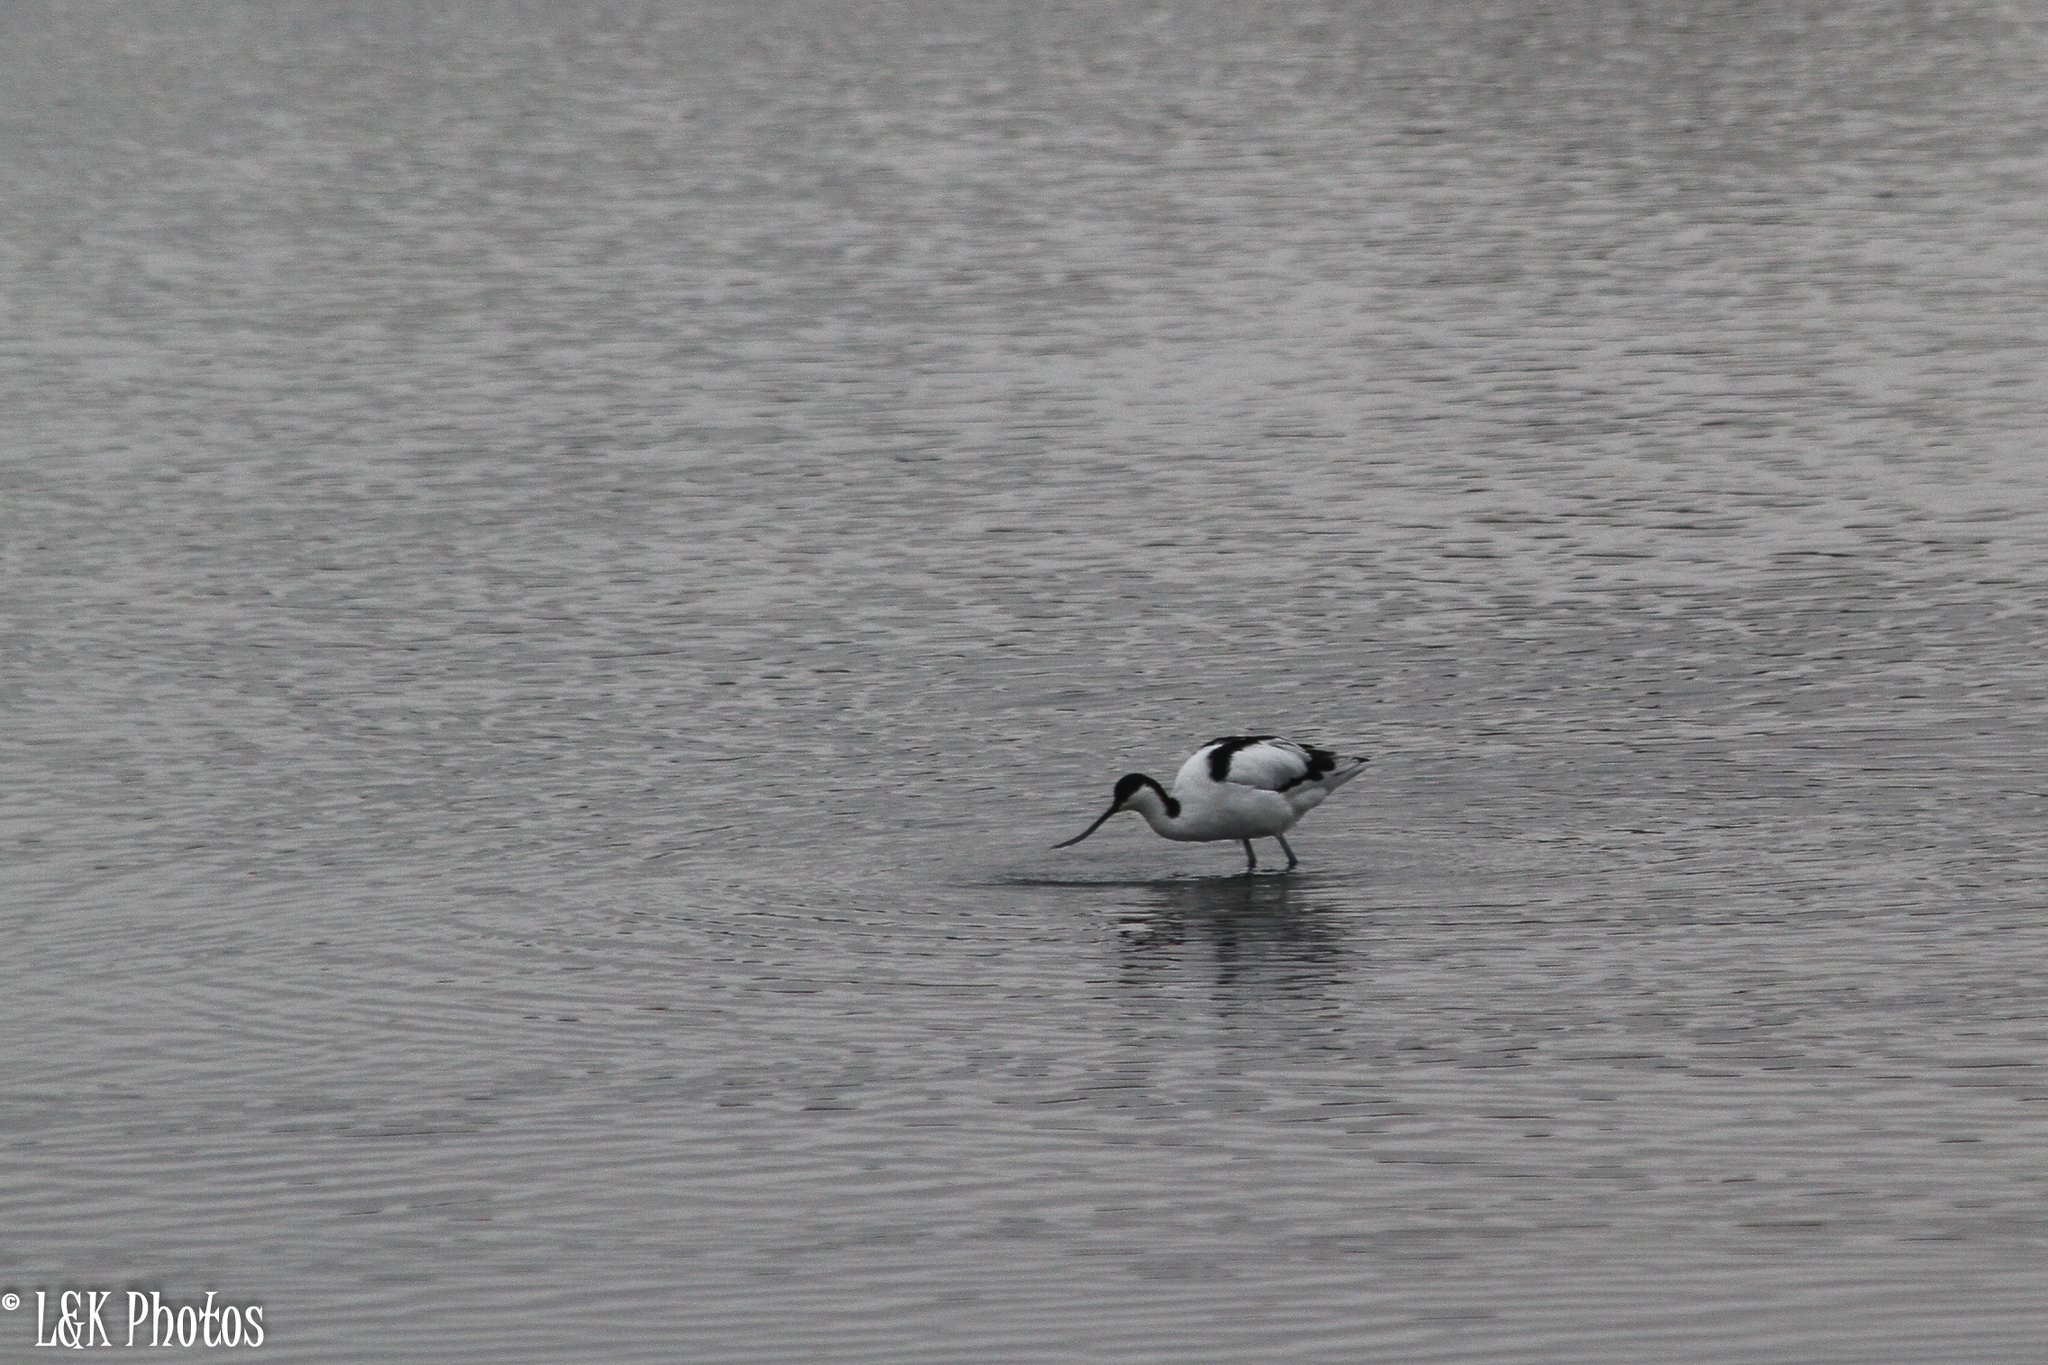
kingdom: Animalia
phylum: Chordata
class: Aves
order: Charadriiformes
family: Recurvirostridae
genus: Recurvirostra
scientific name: Recurvirostra avosetta
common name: Pied avocet
